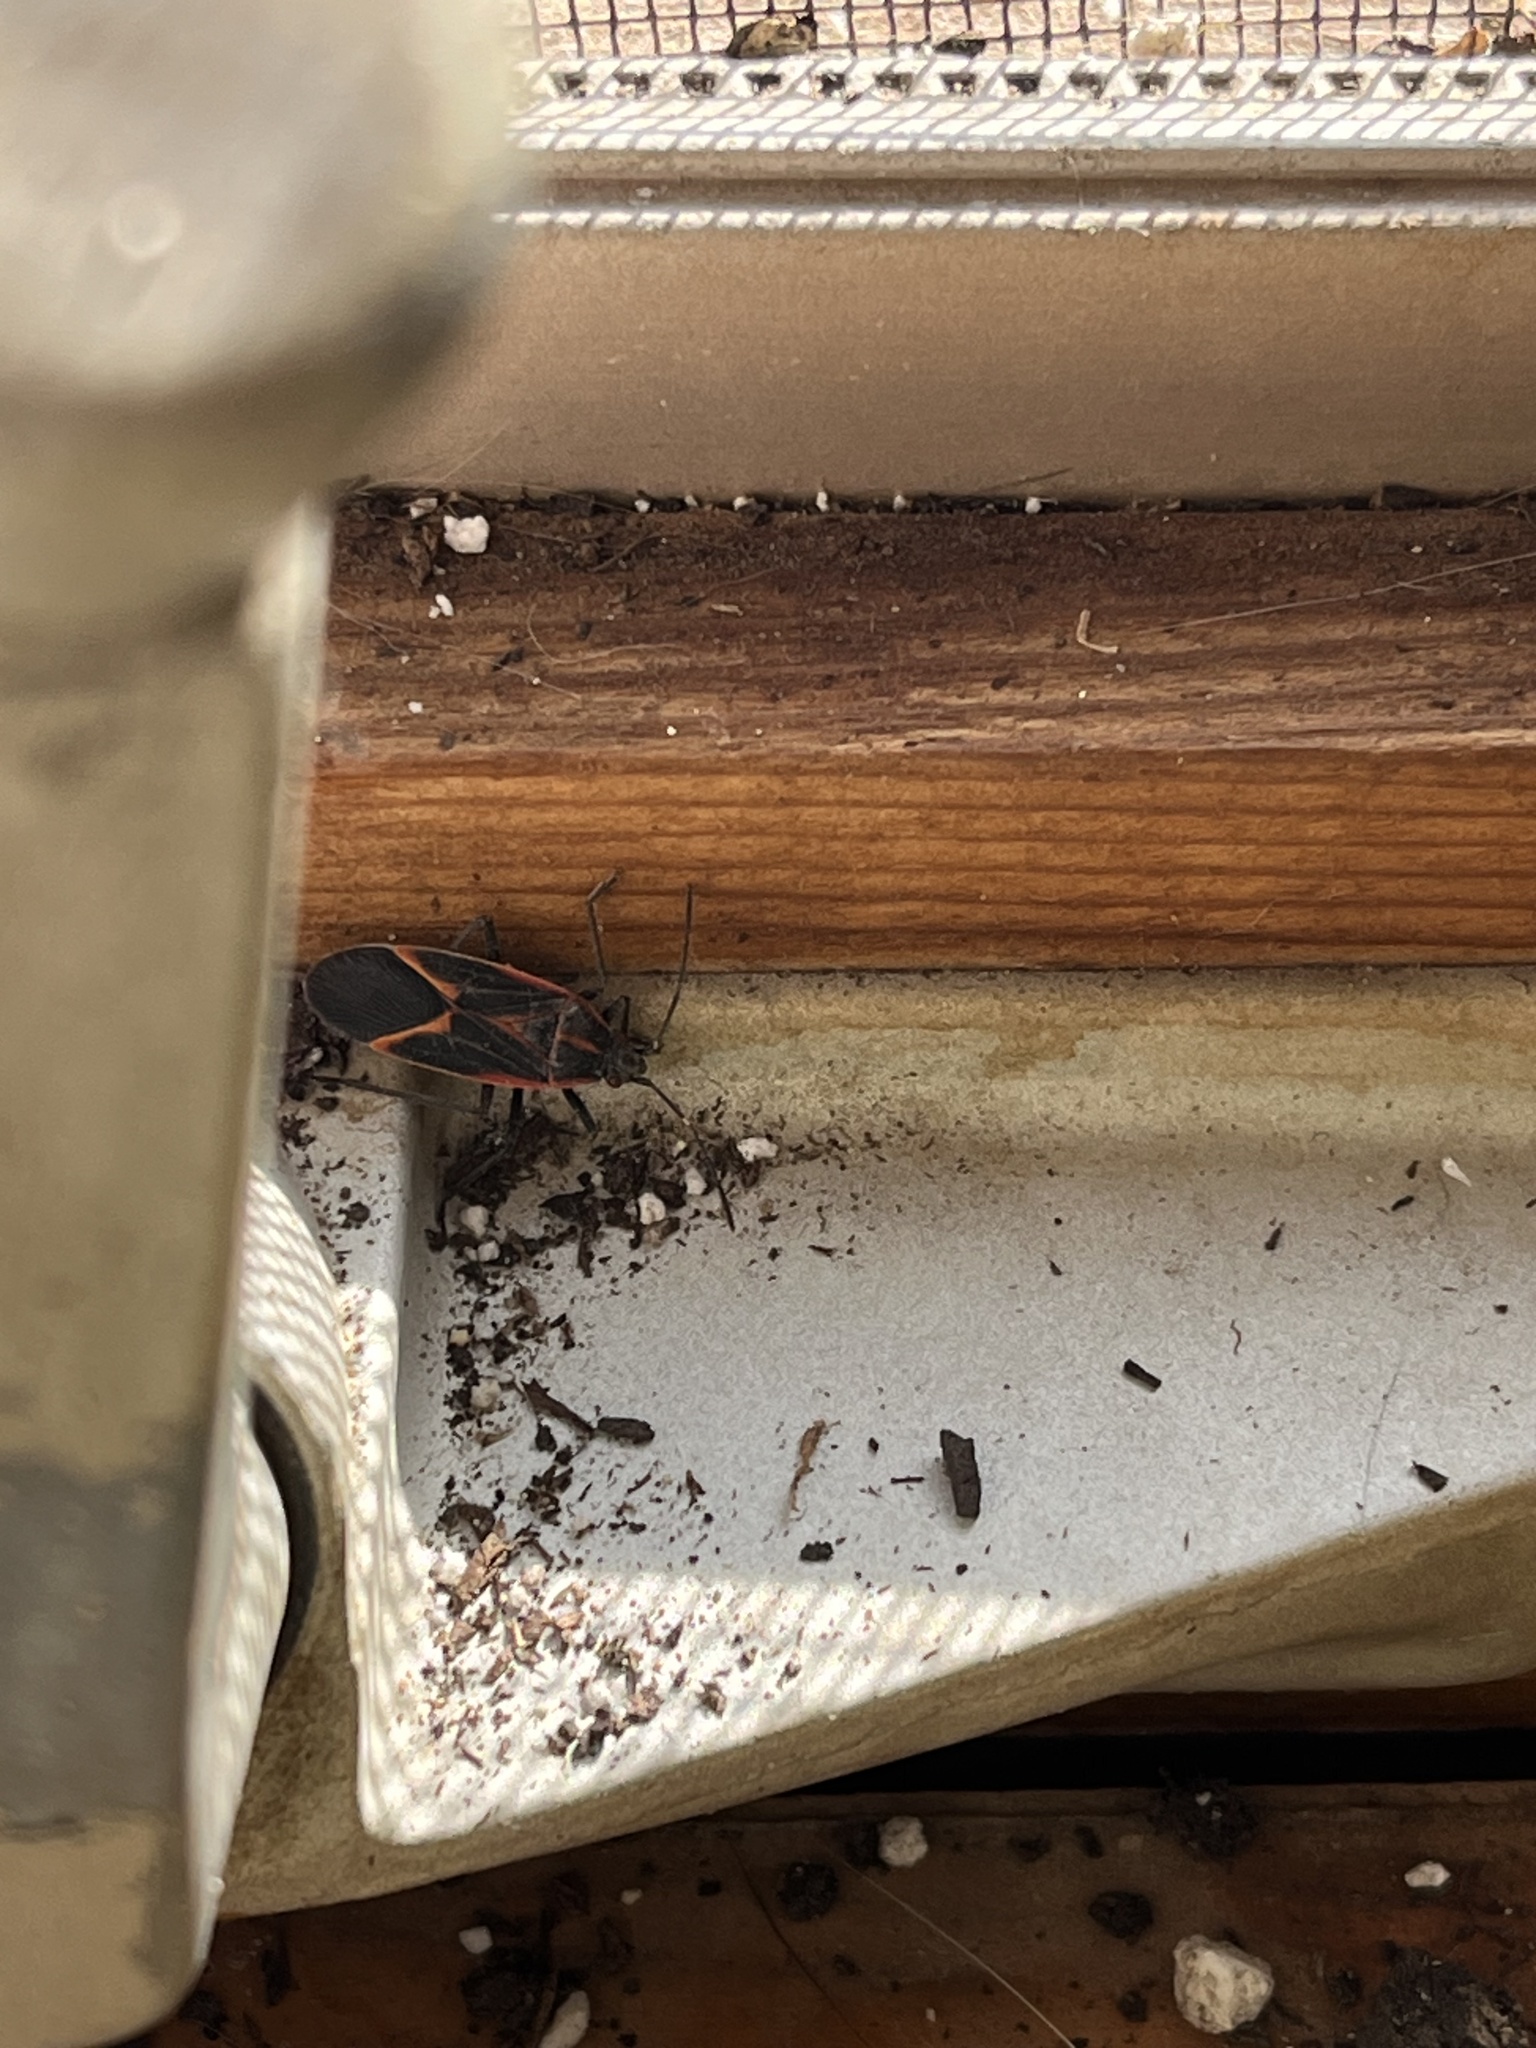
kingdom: Animalia
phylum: Arthropoda
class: Insecta
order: Hemiptera
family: Rhopalidae
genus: Boisea
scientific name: Boisea trivittata
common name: Boxelder bug
